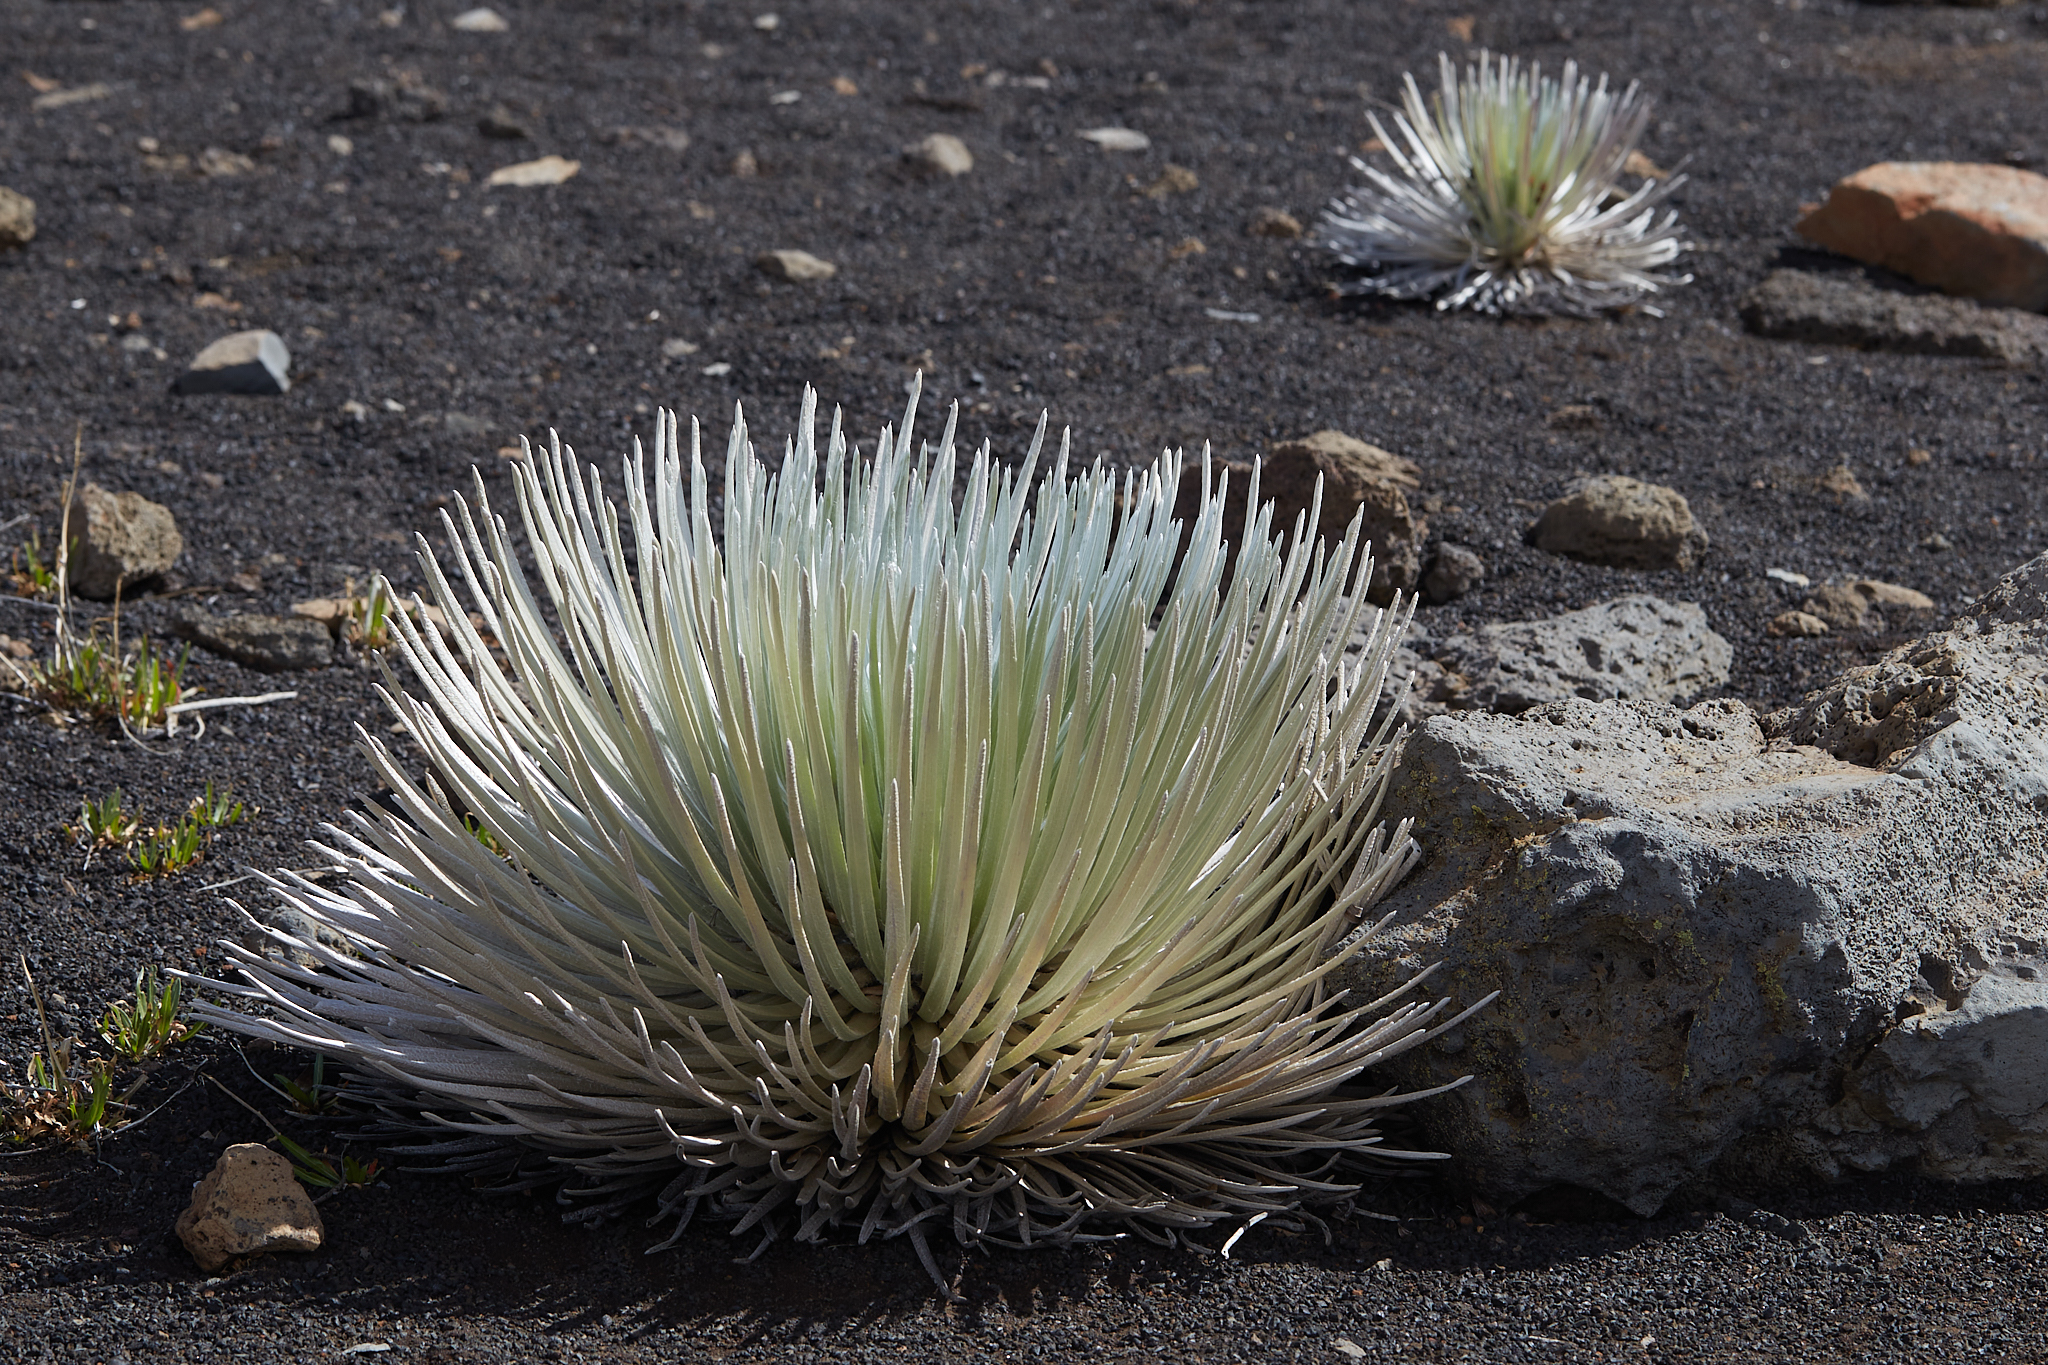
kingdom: Plantae
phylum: Tracheophyta
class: Magnoliopsida
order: Asterales
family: Asteraceae
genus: Argyroxiphium
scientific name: Argyroxiphium sandwicense
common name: Silversword
